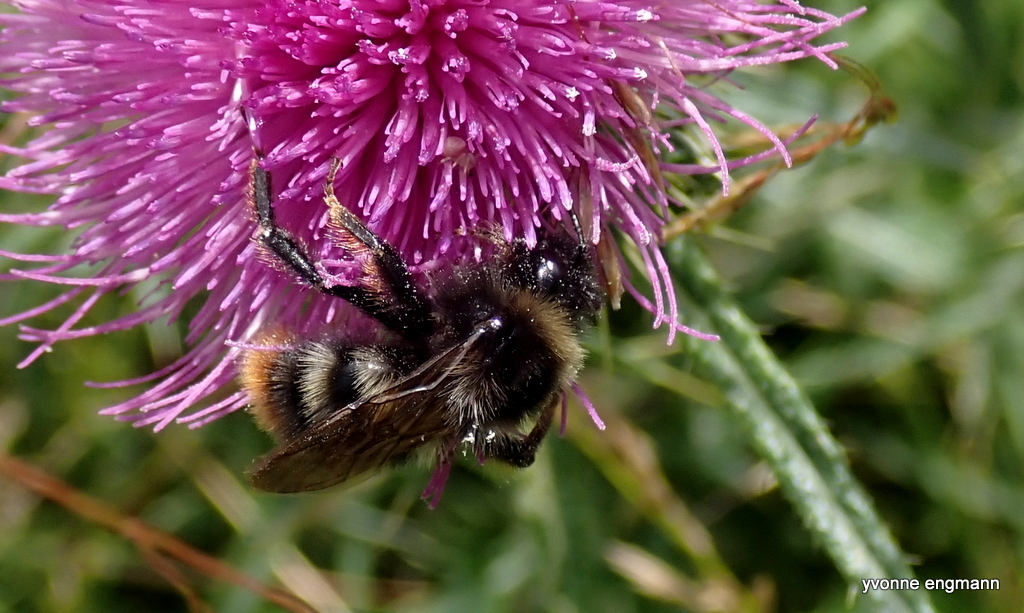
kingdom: Animalia
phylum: Arthropoda
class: Insecta
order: Hymenoptera
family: Apidae
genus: Bombus
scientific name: Bombus rupestris
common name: Hill cuckoo-bee
